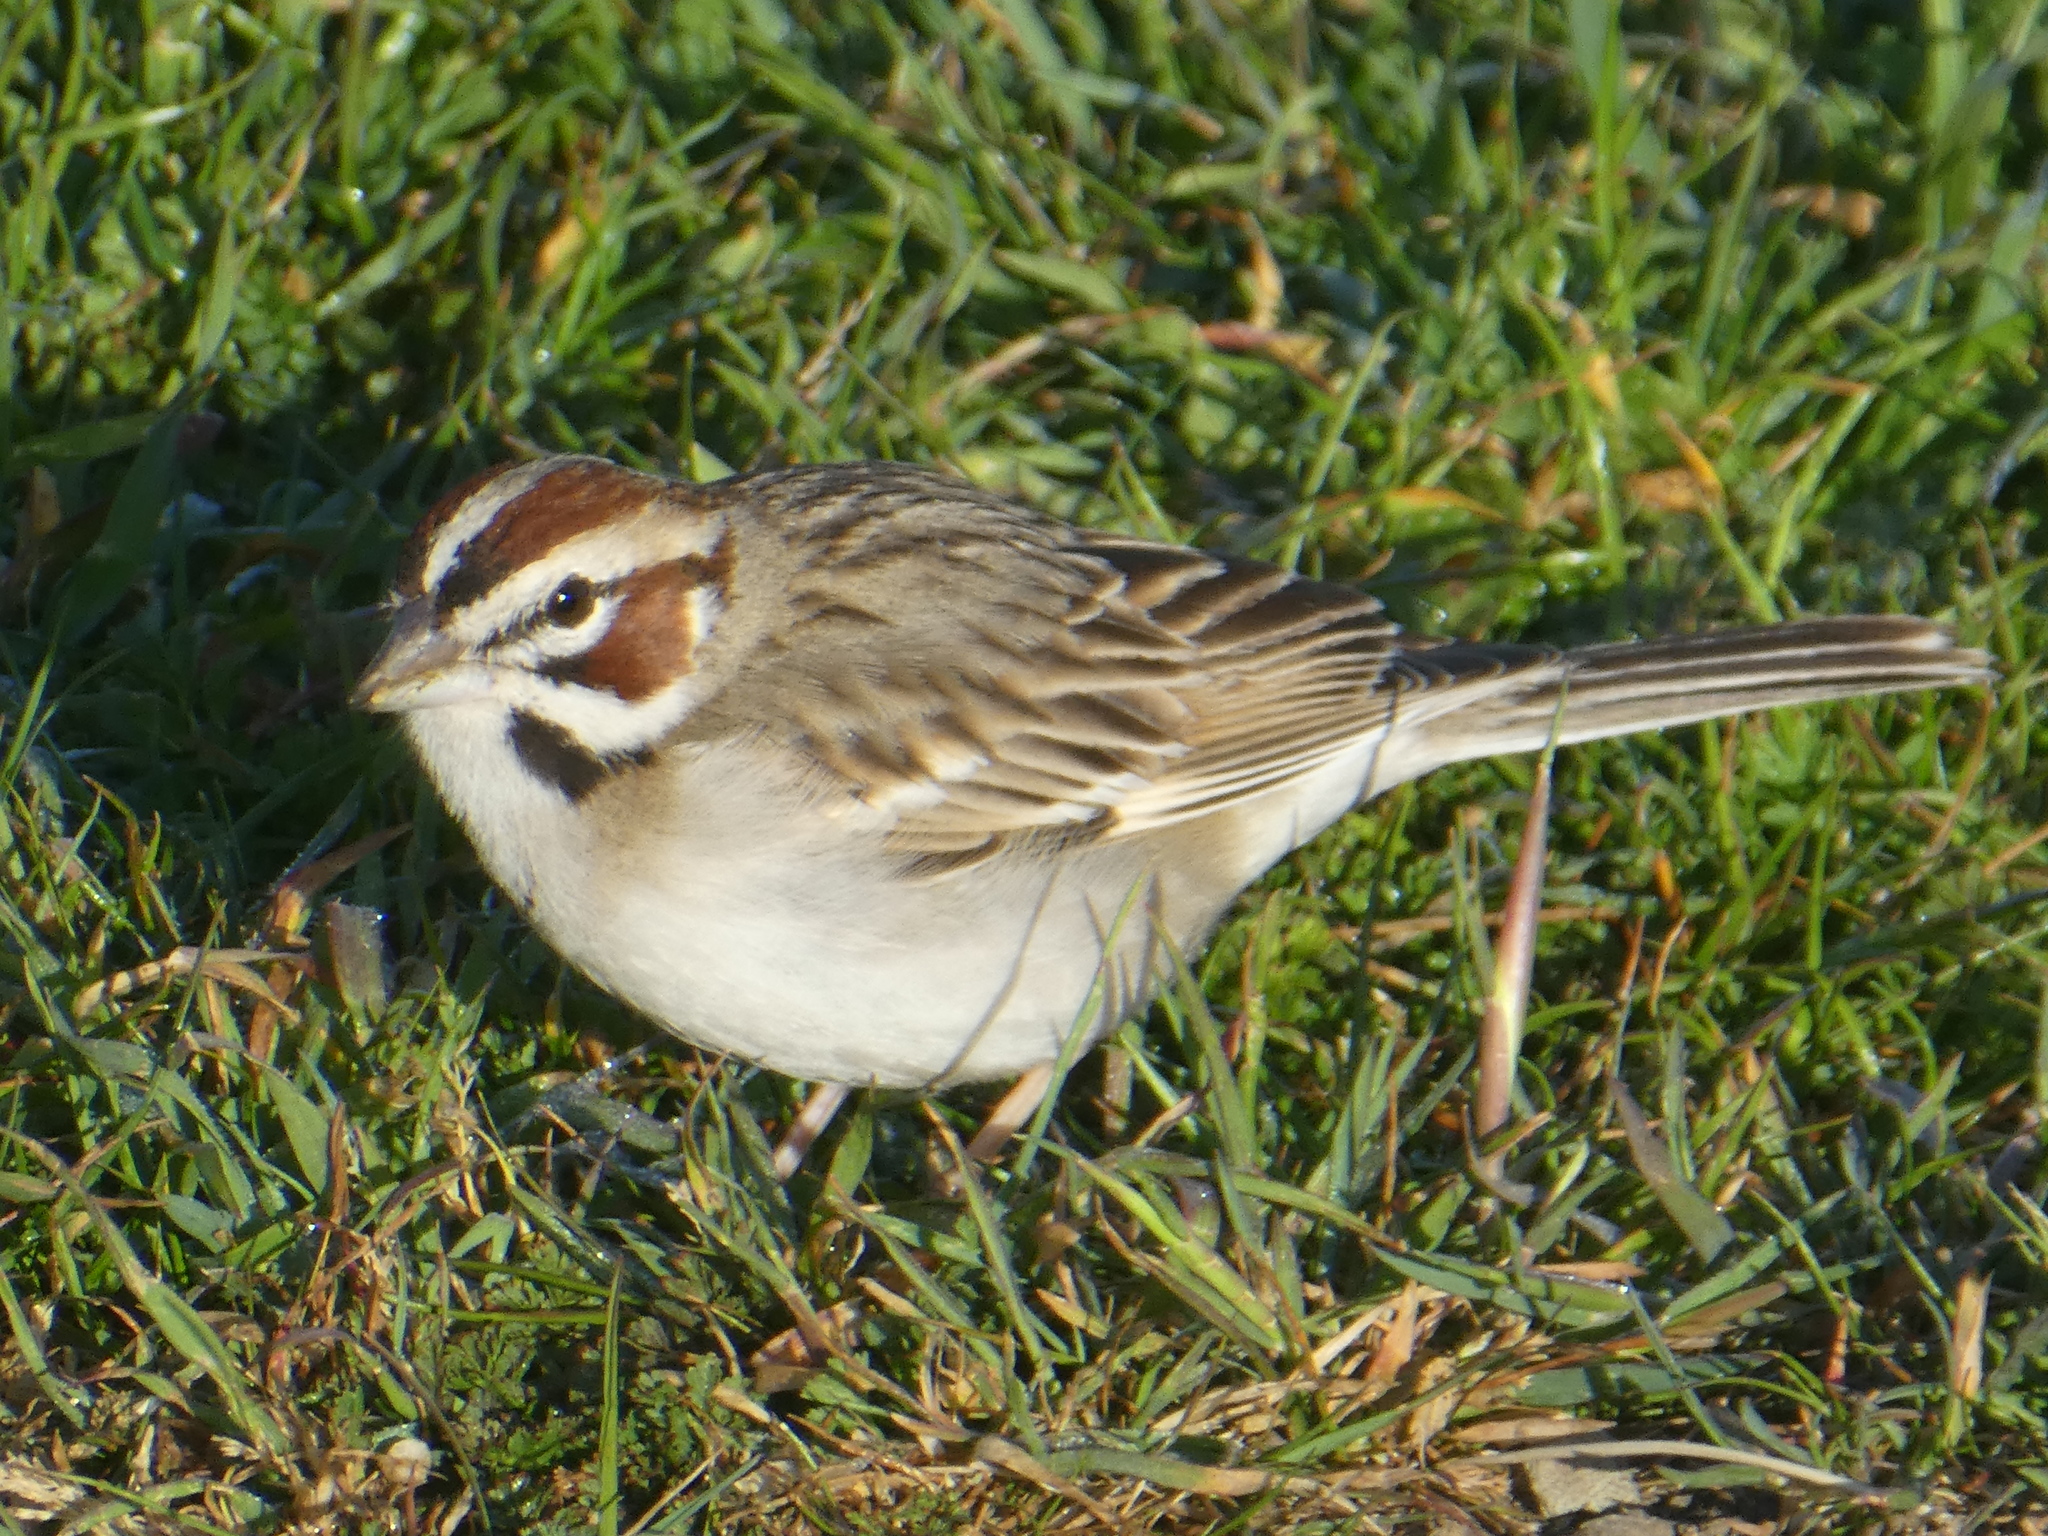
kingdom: Animalia
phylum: Chordata
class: Aves
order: Passeriformes
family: Passerellidae
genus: Chondestes
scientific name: Chondestes grammacus
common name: Lark sparrow
